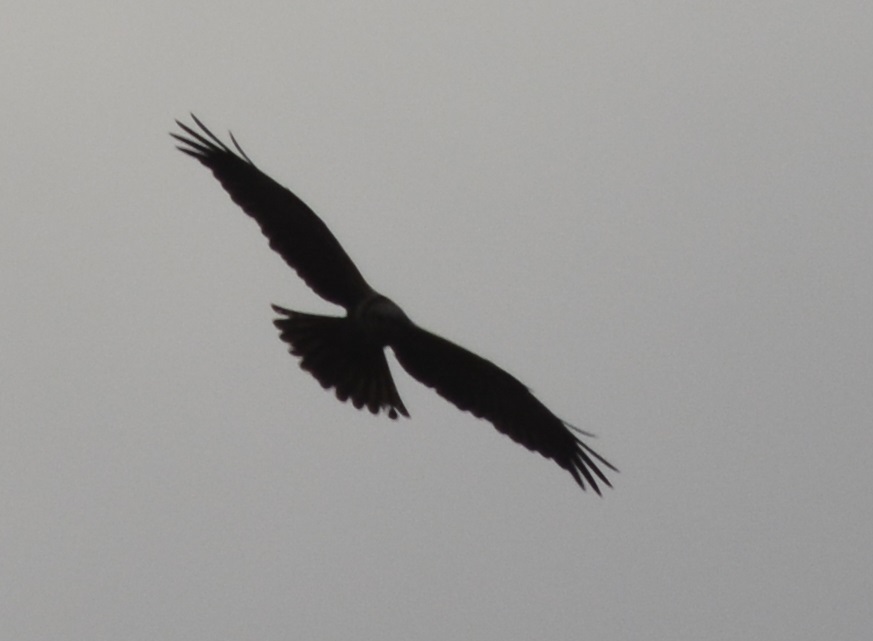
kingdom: Animalia
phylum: Chordata
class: Aves
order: Accipitriformes
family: Accipitridae
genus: Circus
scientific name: Circus aeruginosus
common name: Western marsh harrier
